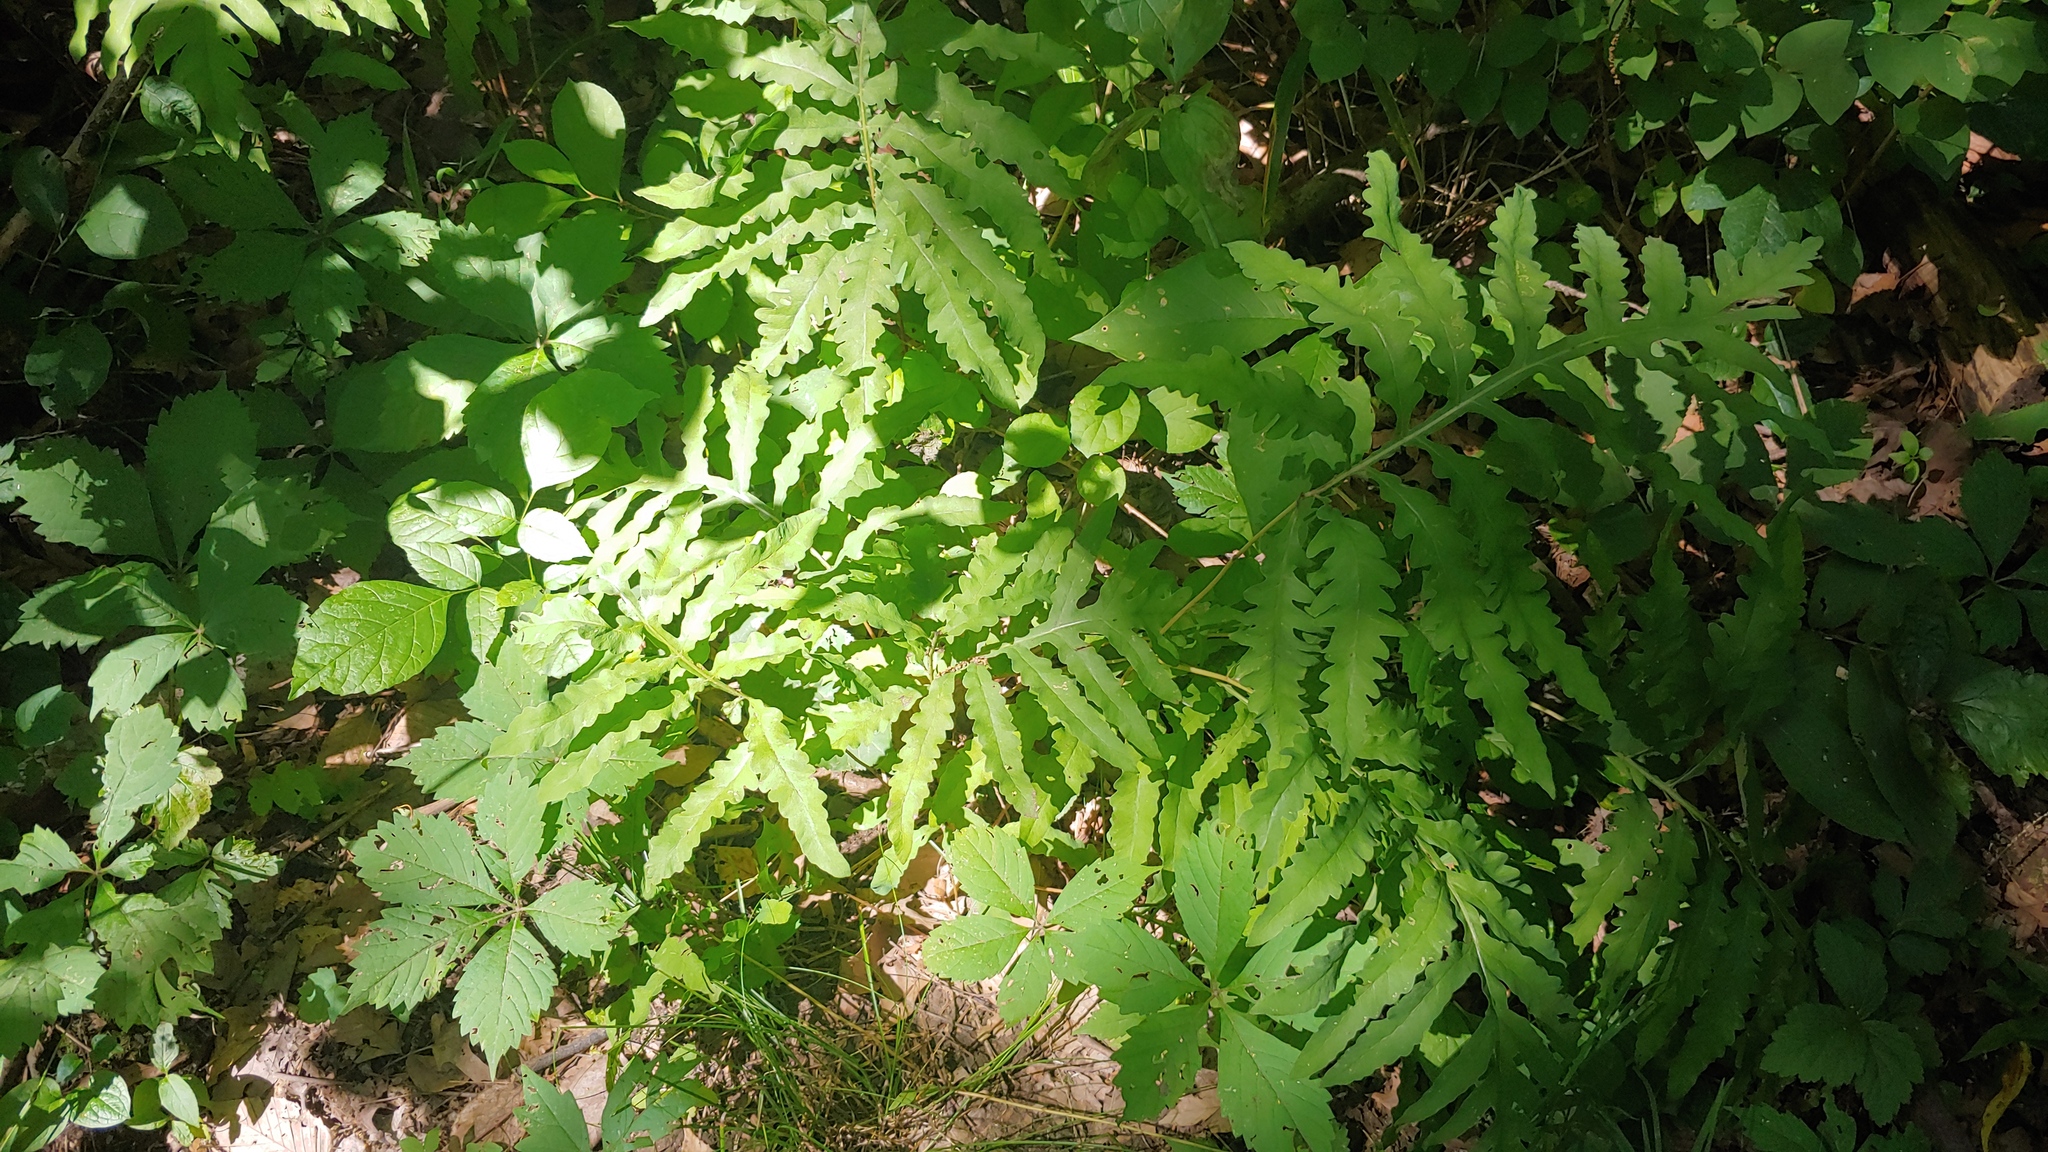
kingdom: Plantae
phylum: Tracheophyta
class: Polypodiopsida
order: Polypodiales
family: Onocleaceae
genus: Onoclea
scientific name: Onoclea sensibilis
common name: Sensitive fern
